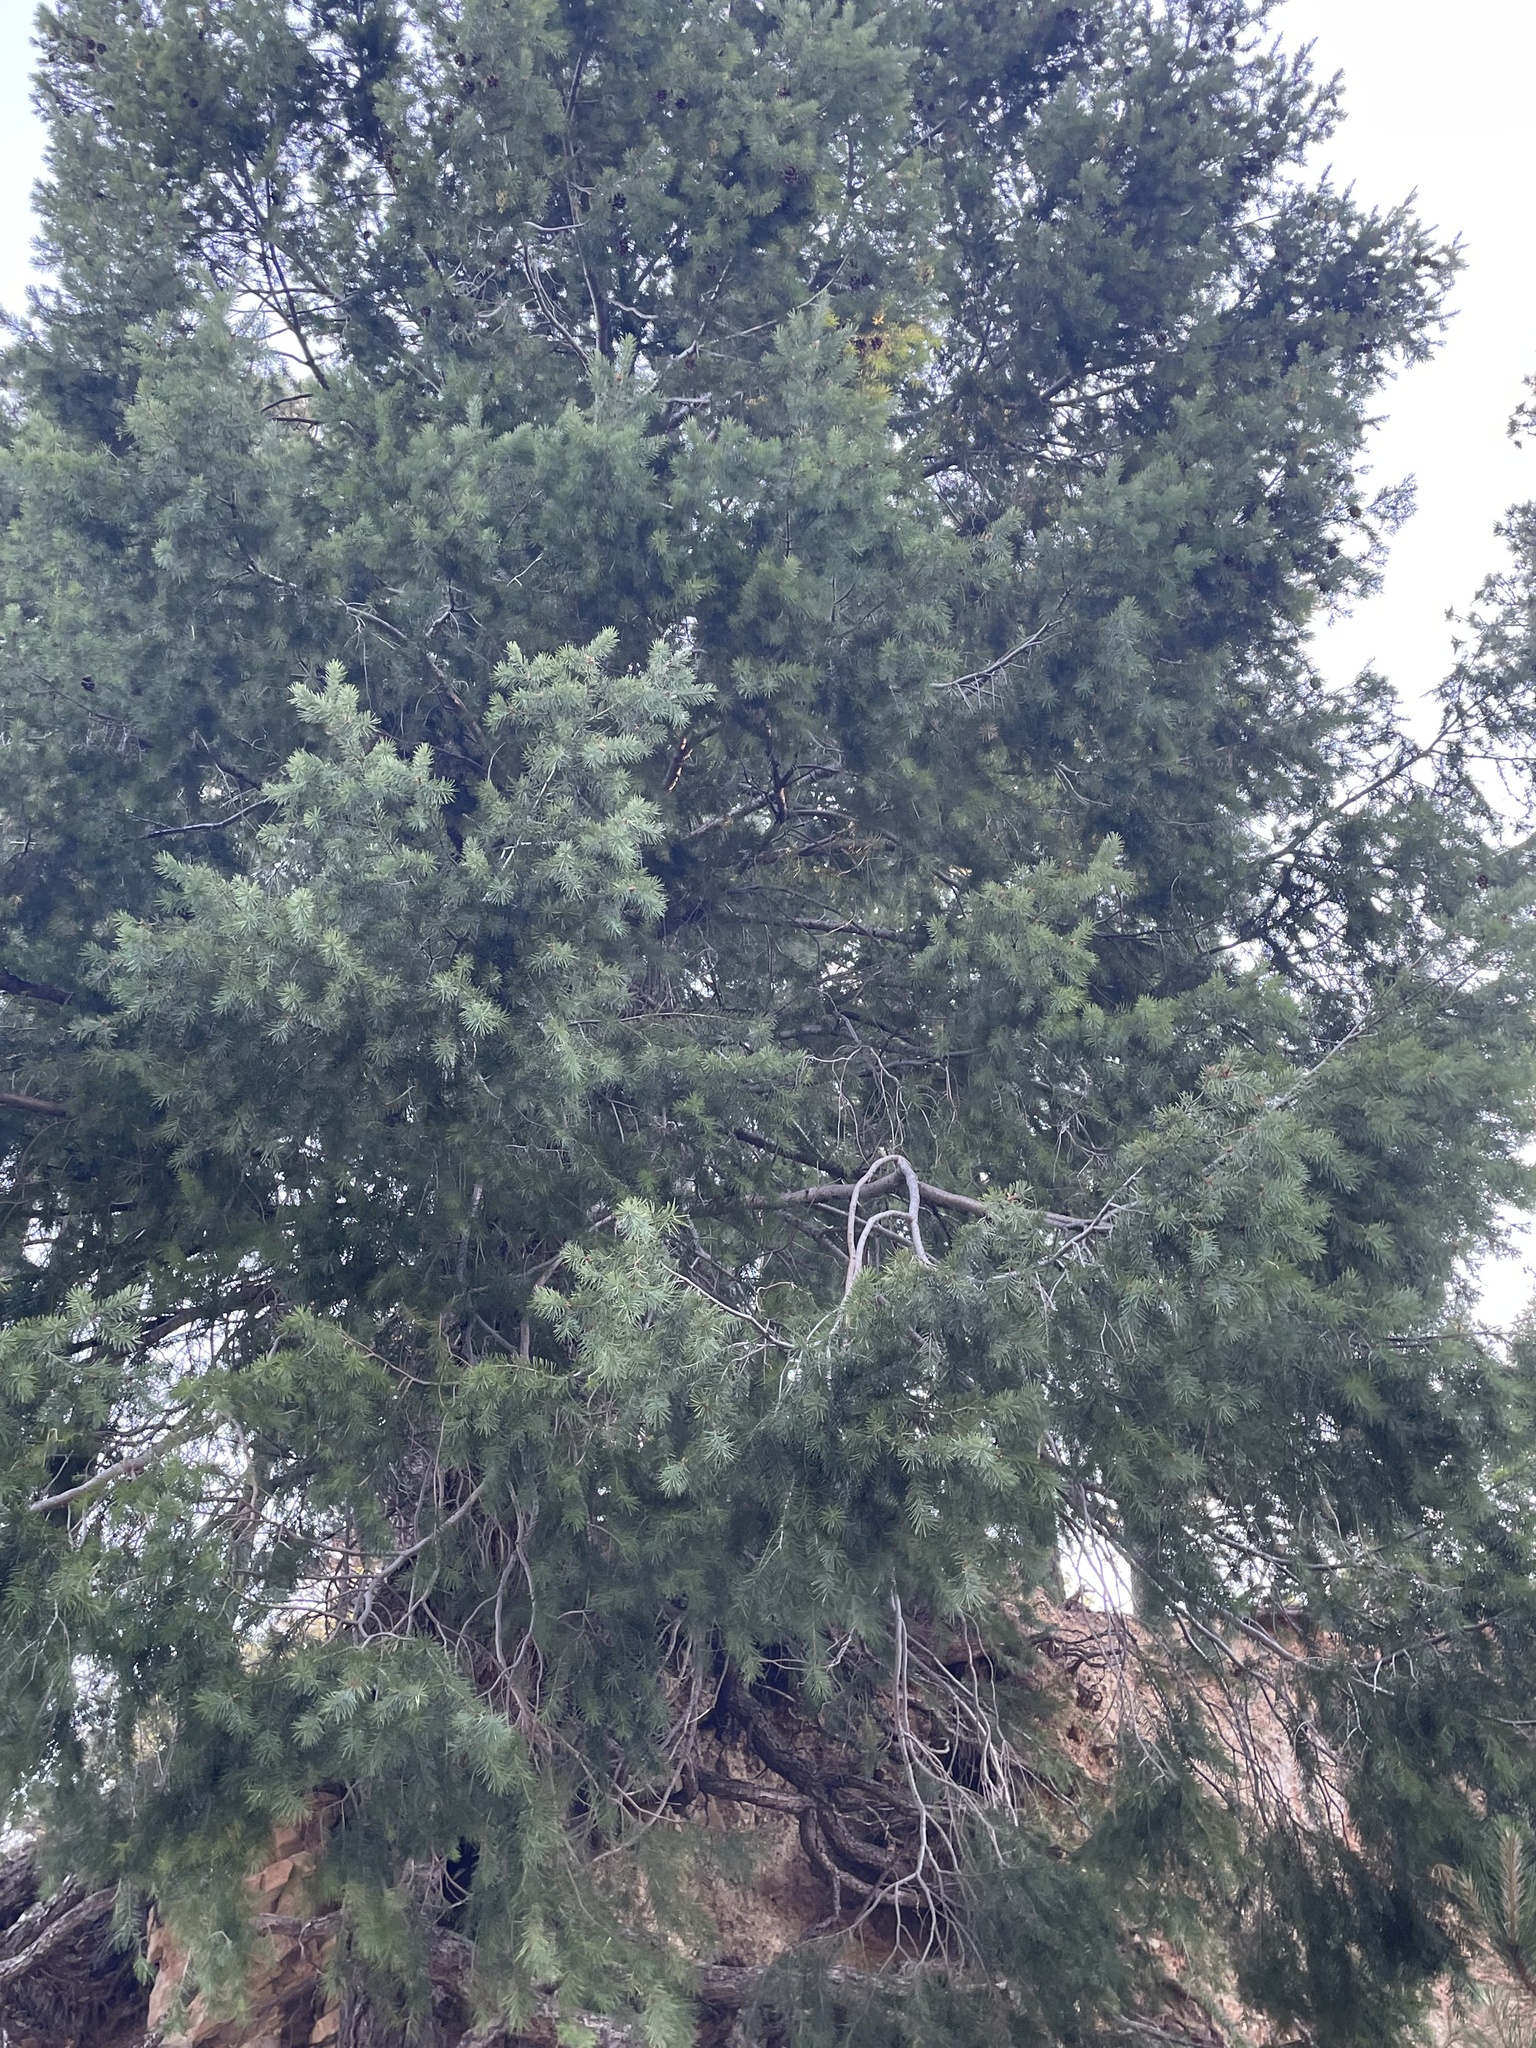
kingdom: Plantae
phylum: Tracheophyta
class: Pinopsida
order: Pinales
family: Pinaceae
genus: Pseudotsuga
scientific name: Pseudotsuga menziesii
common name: Douglas fir
